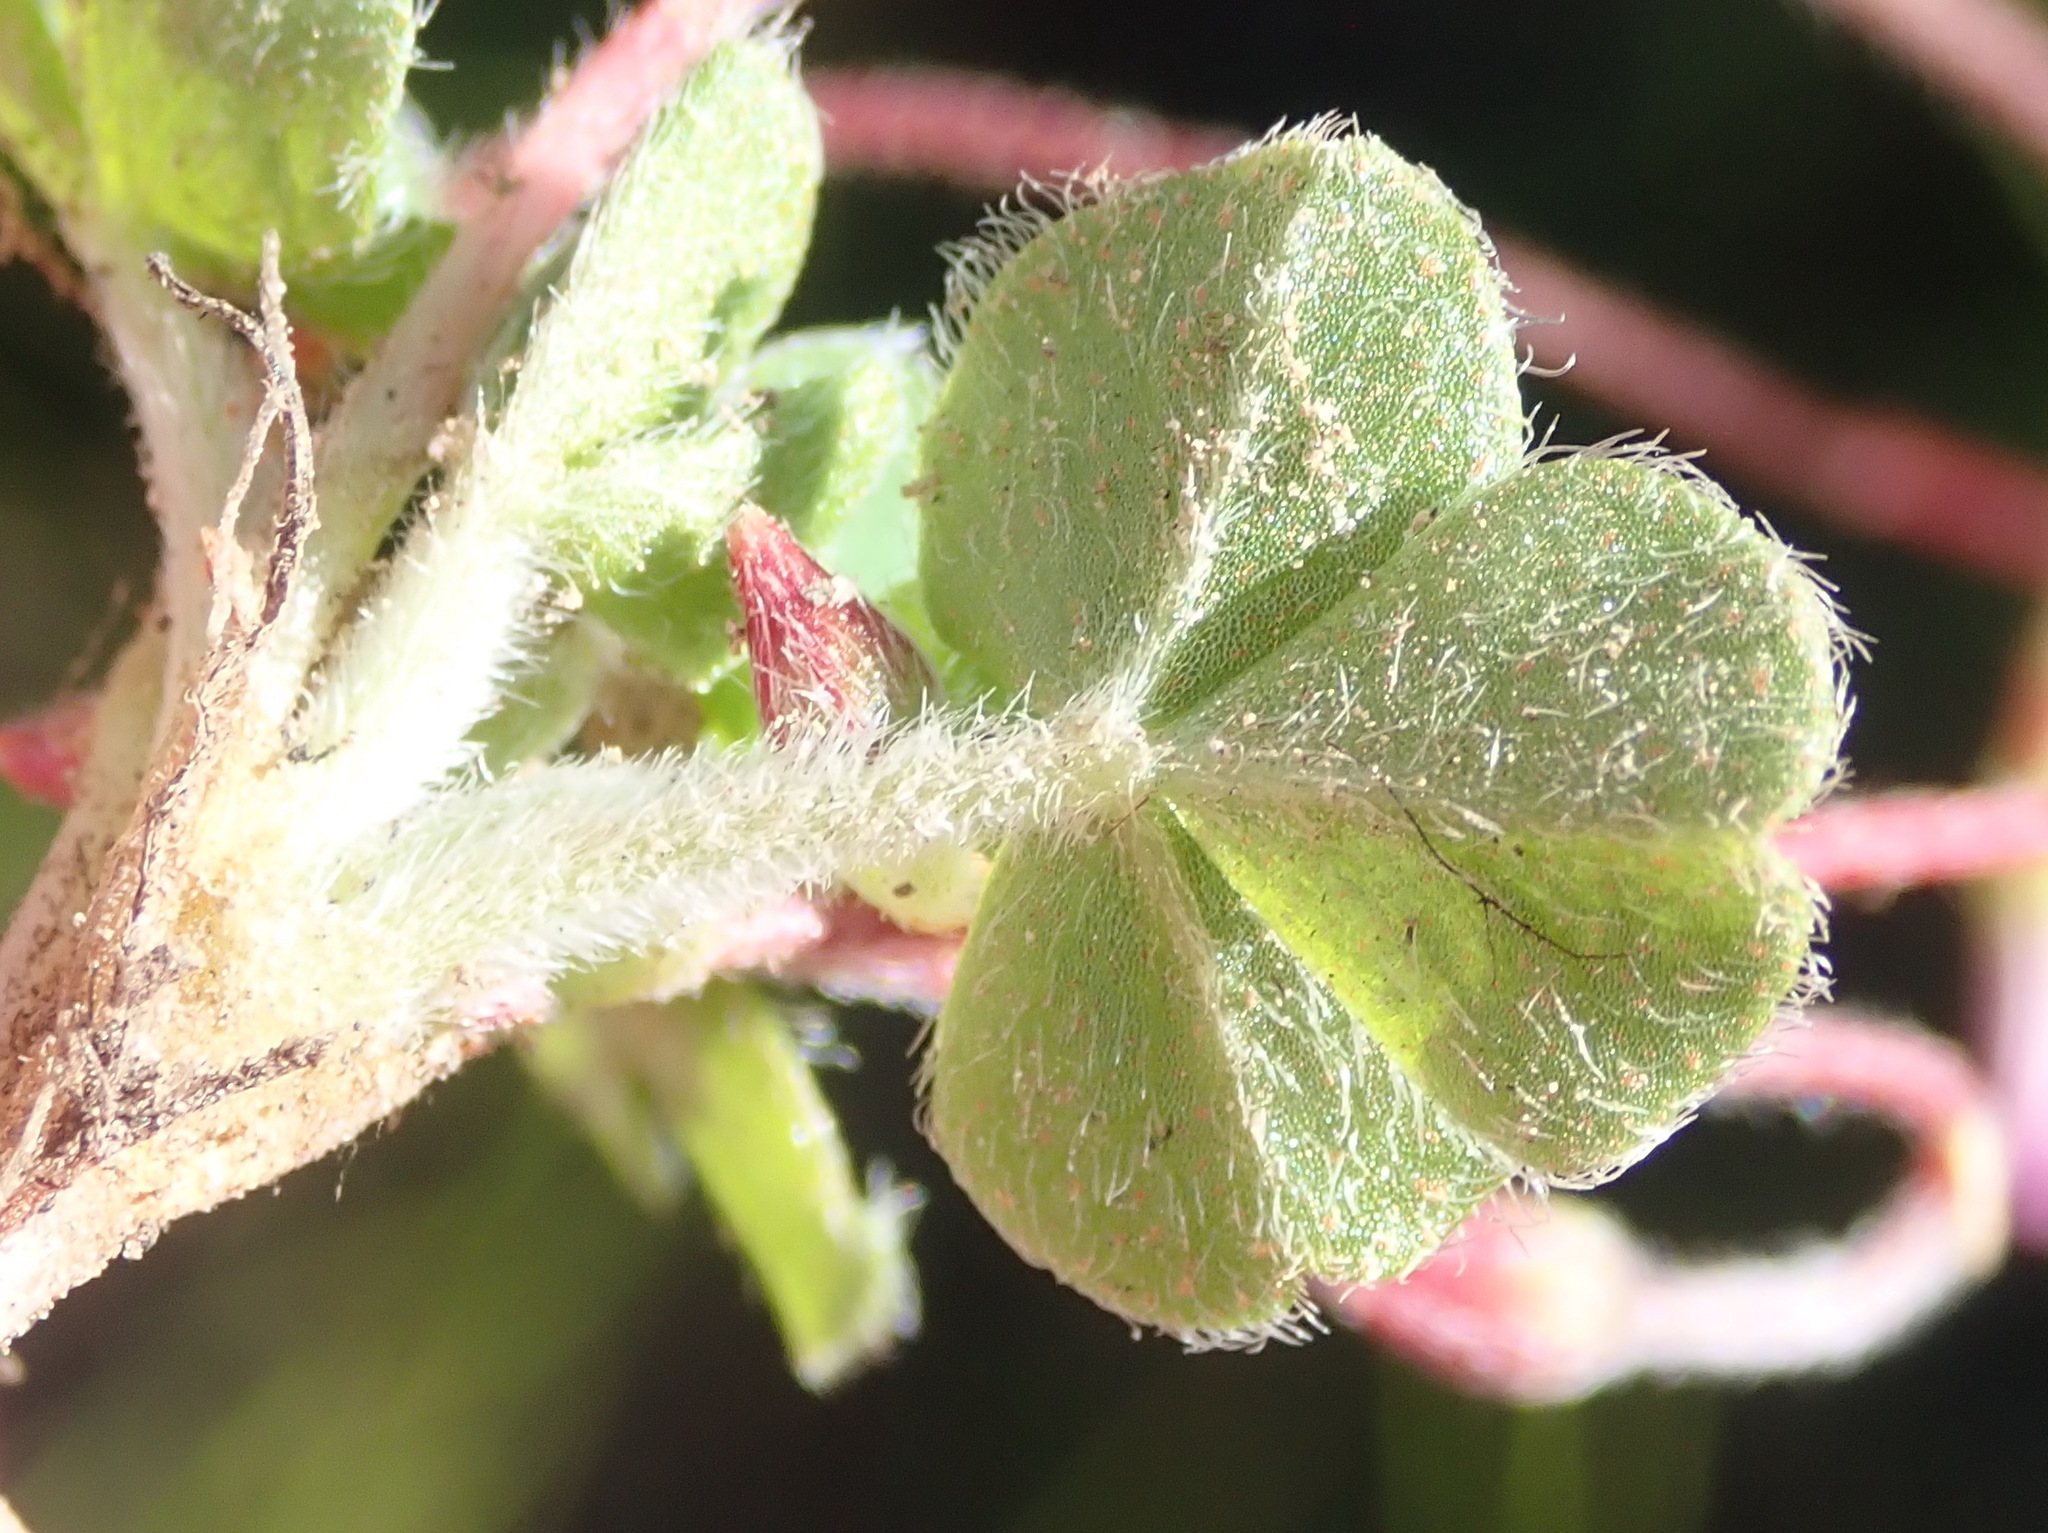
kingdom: Plantae
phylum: Tracheophyta
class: Magnoliopsida
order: Oxalidales
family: Oxalidaceae
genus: Oxalis
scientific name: Oxalis imbricata
